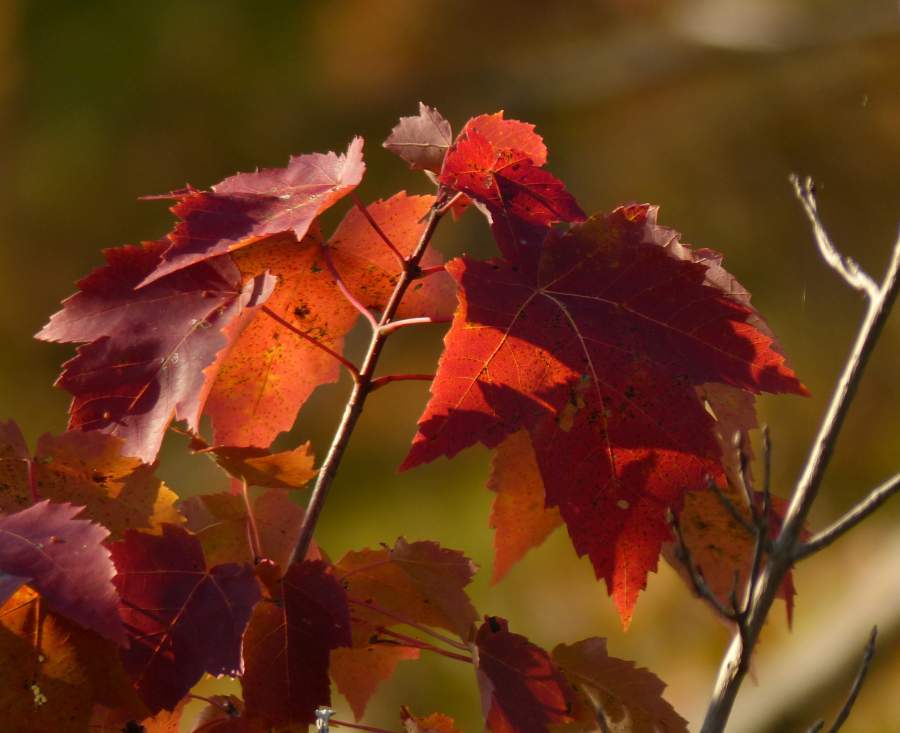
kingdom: Plantae
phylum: Tracheophyta
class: Magnoliopsida
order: Sapindales
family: Sapindaceae
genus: Acer
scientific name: Acer rubrum
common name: Red maple
